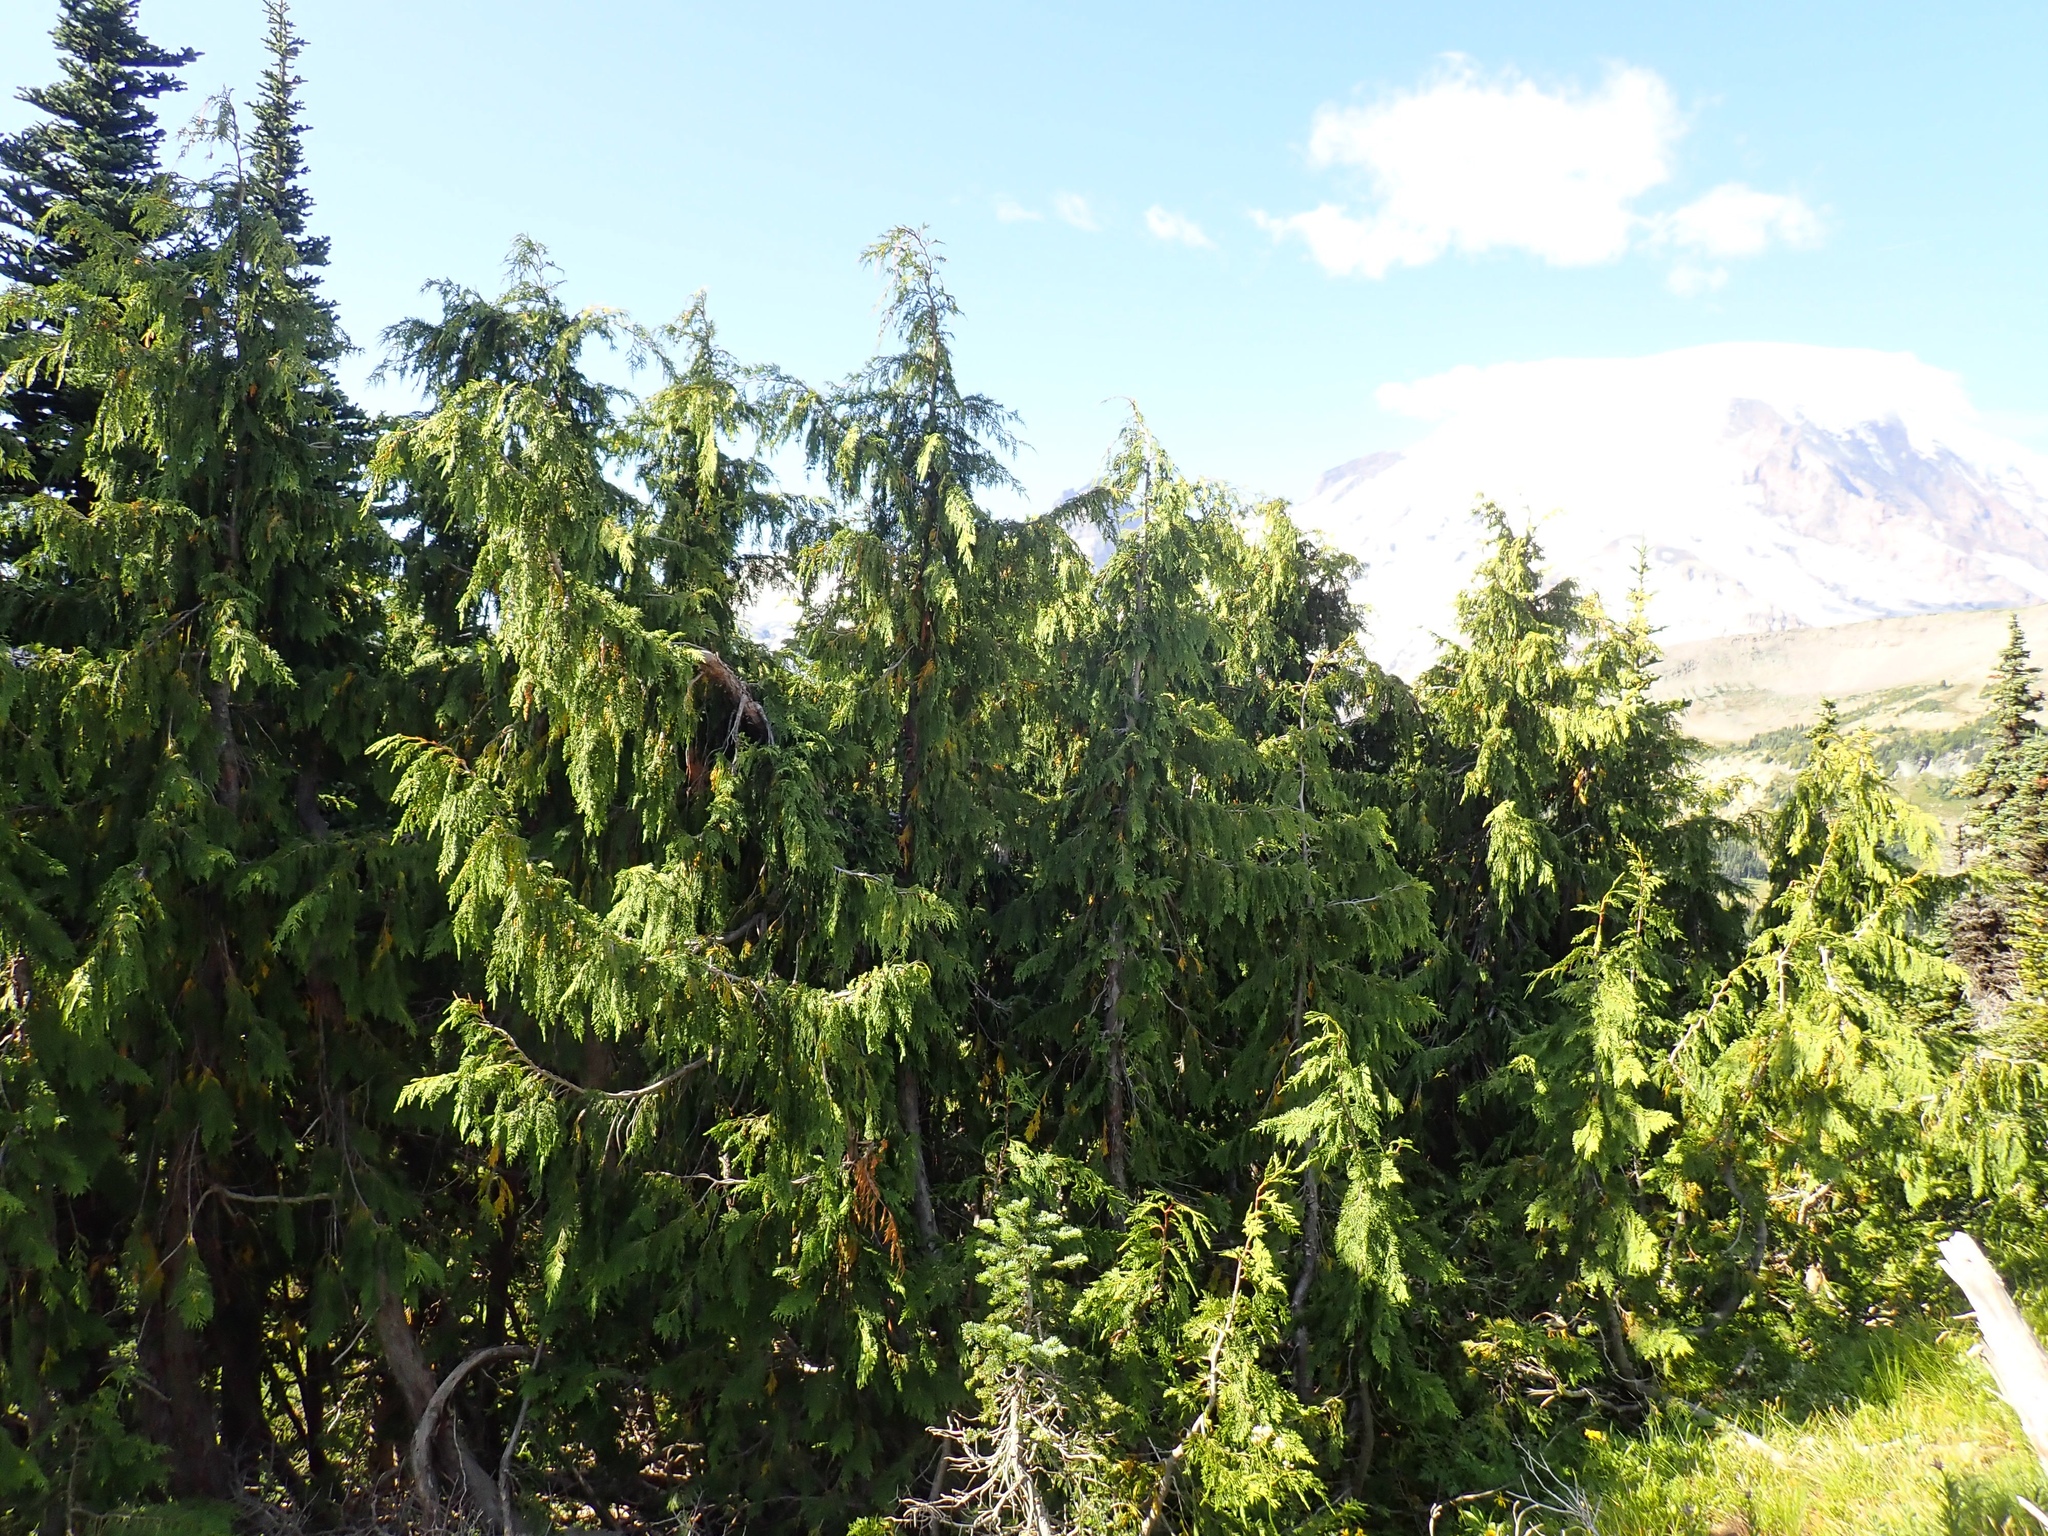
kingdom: Plantae
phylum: Tracheophyta
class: Pinopsida
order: Pinales
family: Cupressaceae
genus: Xanthocyparis
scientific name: Xanthocyparis nootkatensis
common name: Nootka cypress
